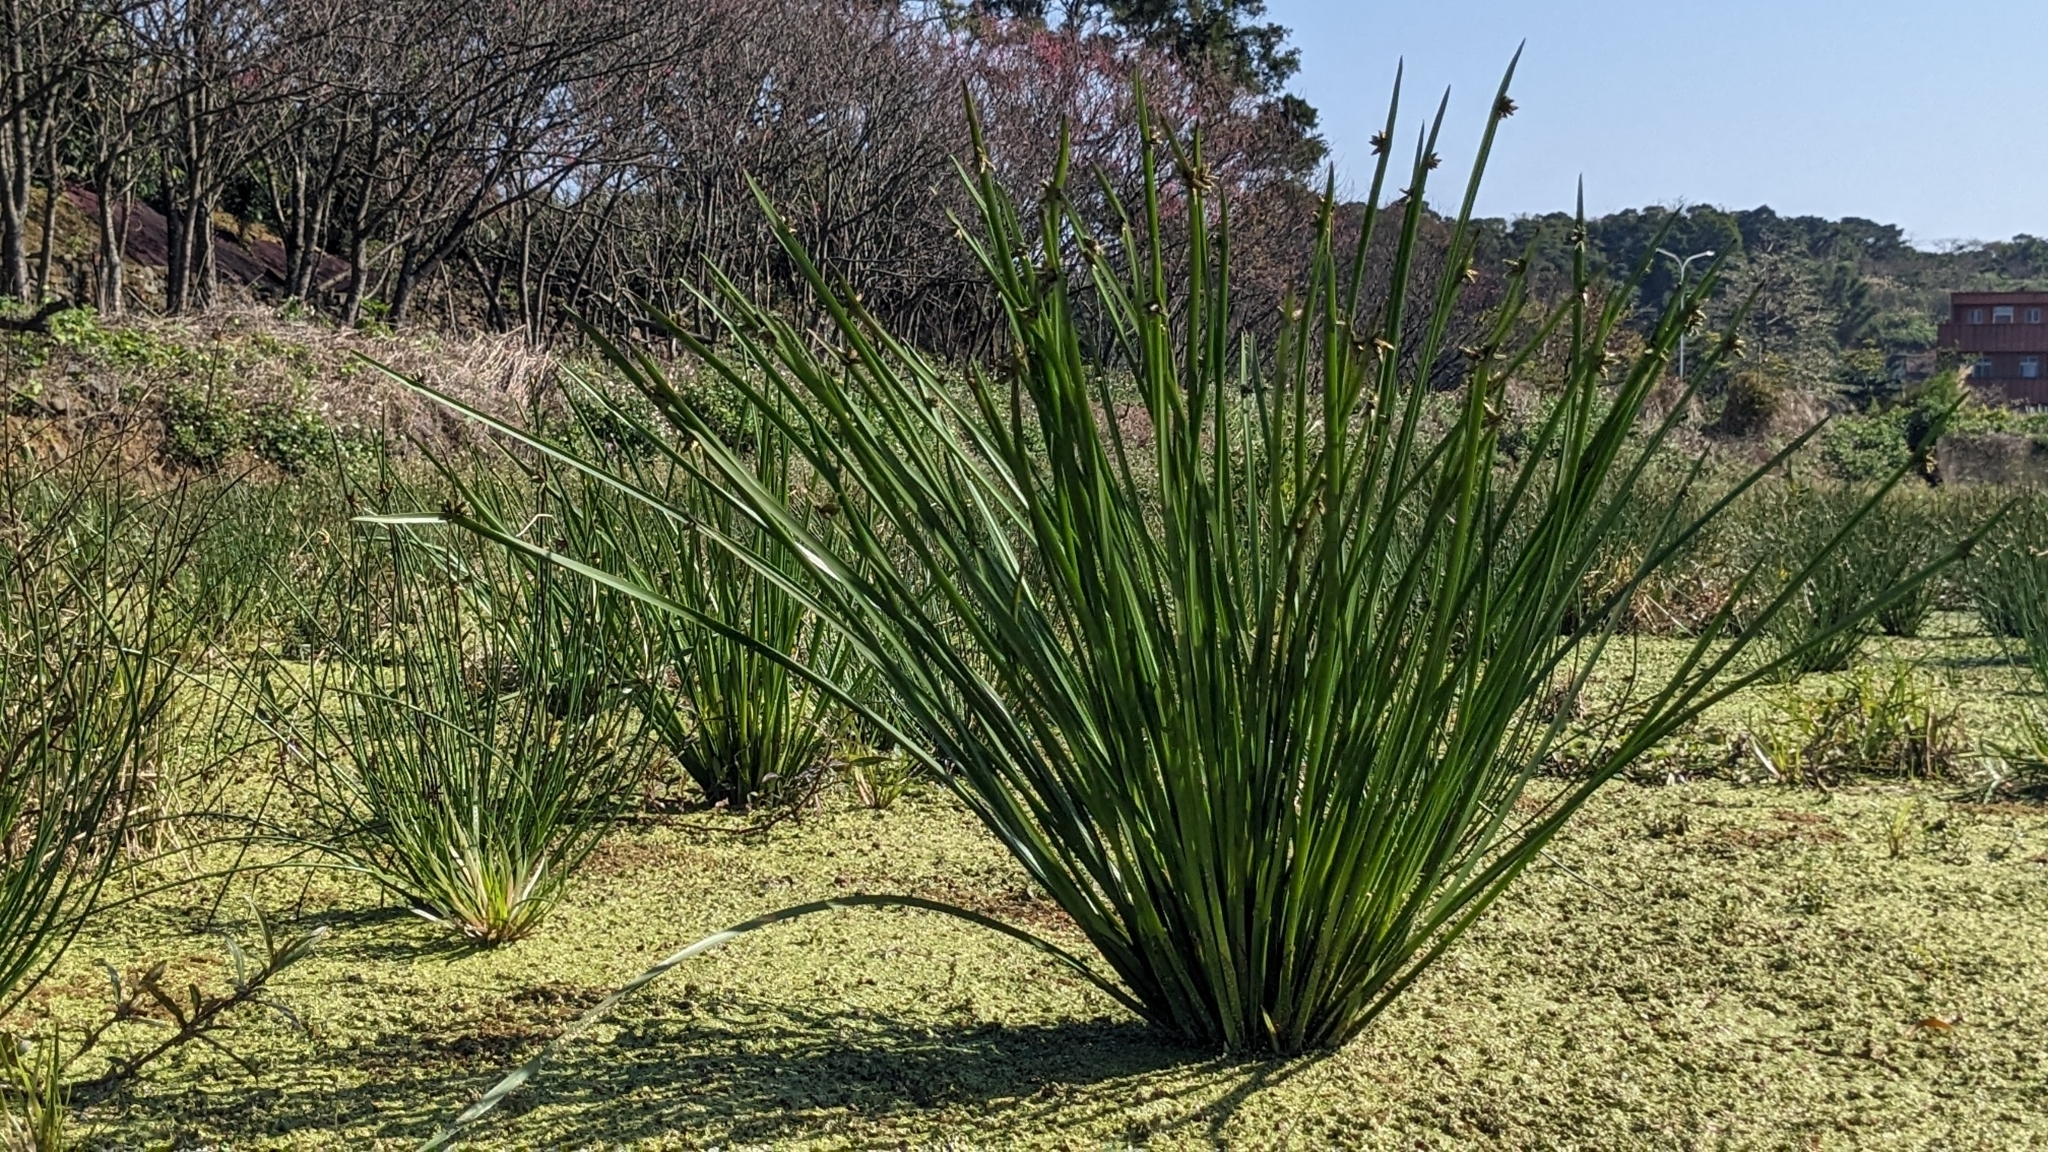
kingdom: Plantae
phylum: Tracheophyta
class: Liliopsida
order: Poales
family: Cyperaceae
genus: Schoenoplectiella
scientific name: Schoenoplectiella mucronata
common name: Bog bulrush
